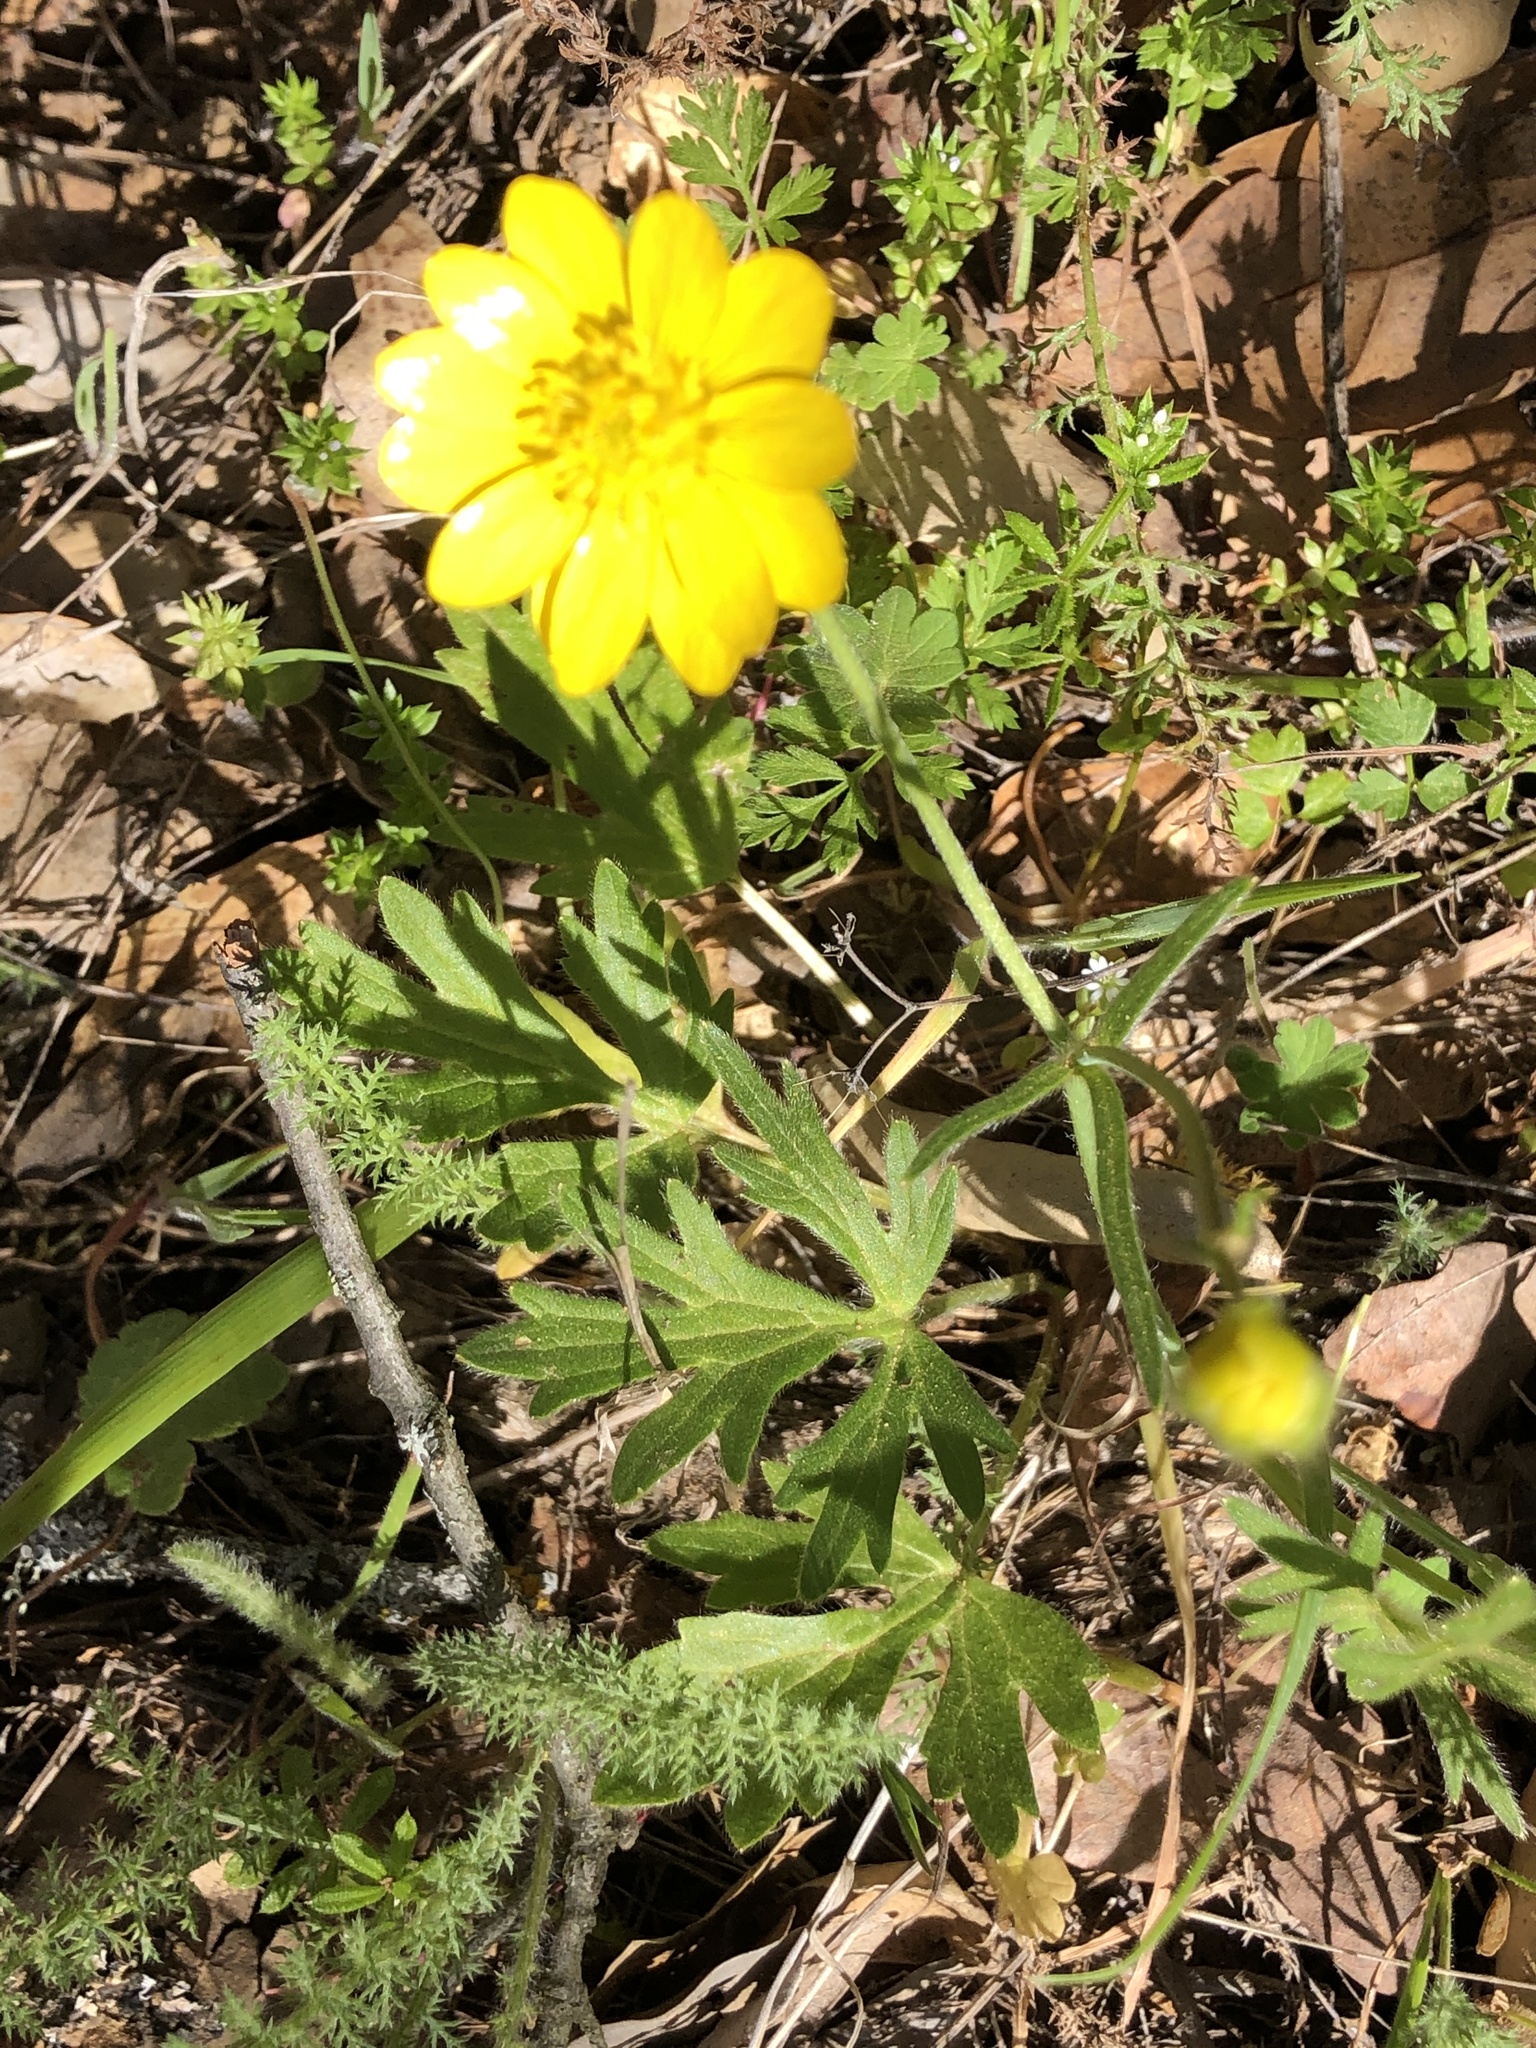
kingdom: Plantae
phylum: Tracheophyta
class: Magnoliopsida
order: Ranunculales
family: Ranunculaceae
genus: Ranunculus
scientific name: Ranunculus californicus
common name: California buttercup
